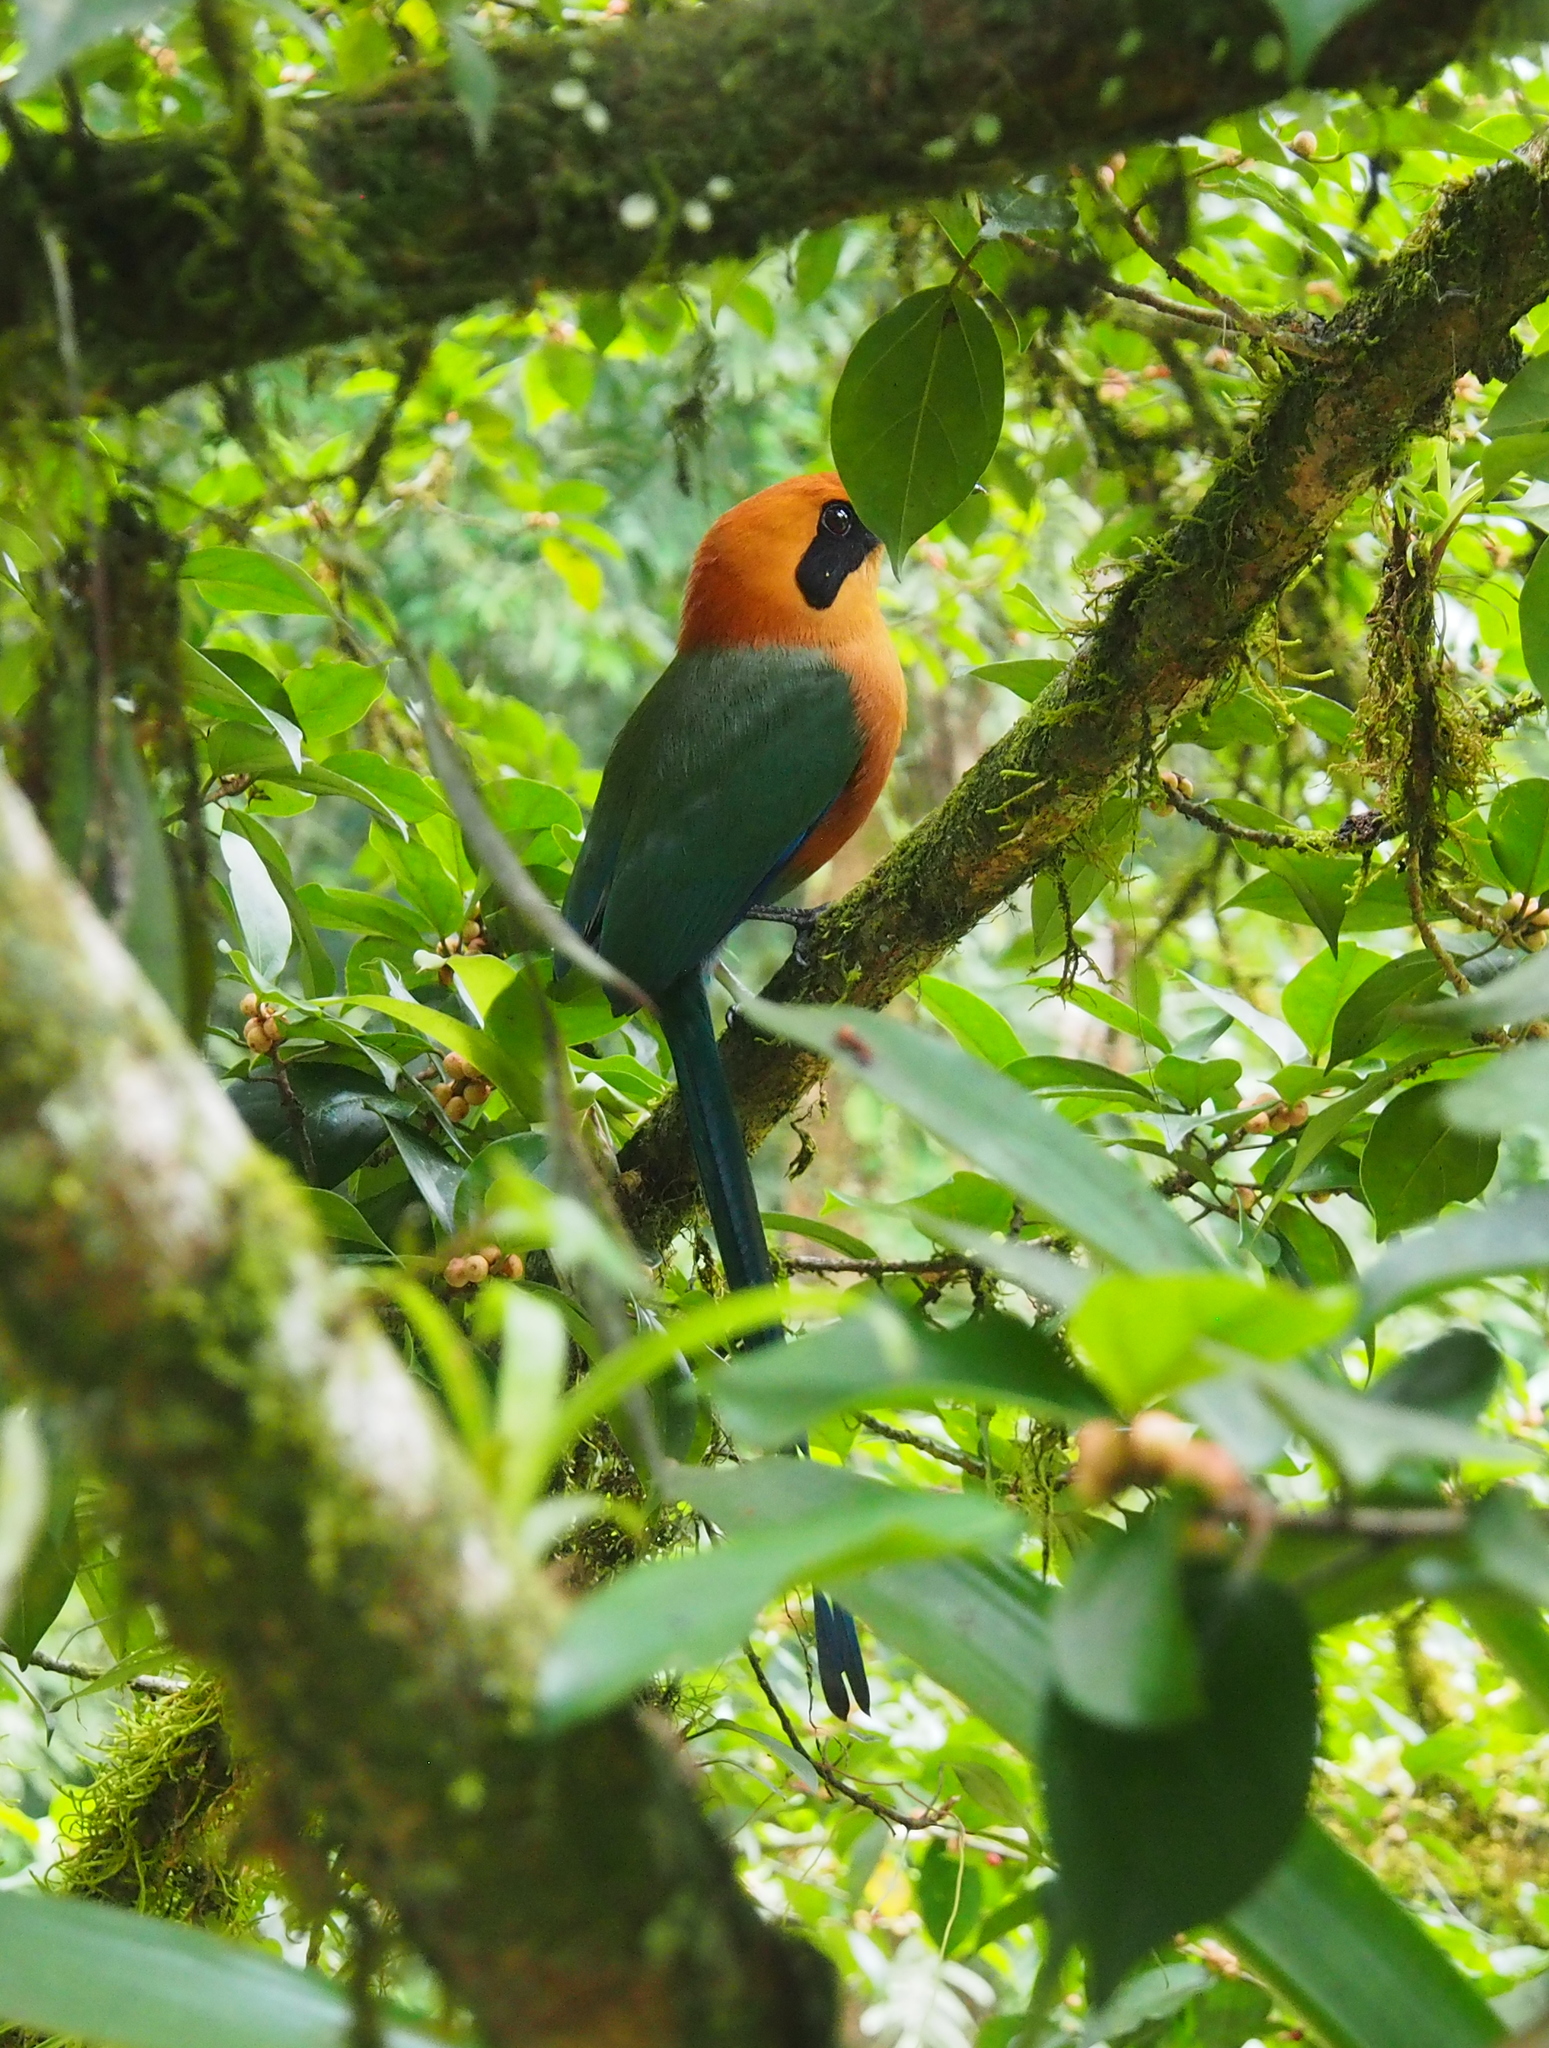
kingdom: Animalia
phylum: Chordata
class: Aves
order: Coraciiformes
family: Momotidae
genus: Baryphthengus
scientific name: Baryphthengus martii
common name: Rufous motmot
